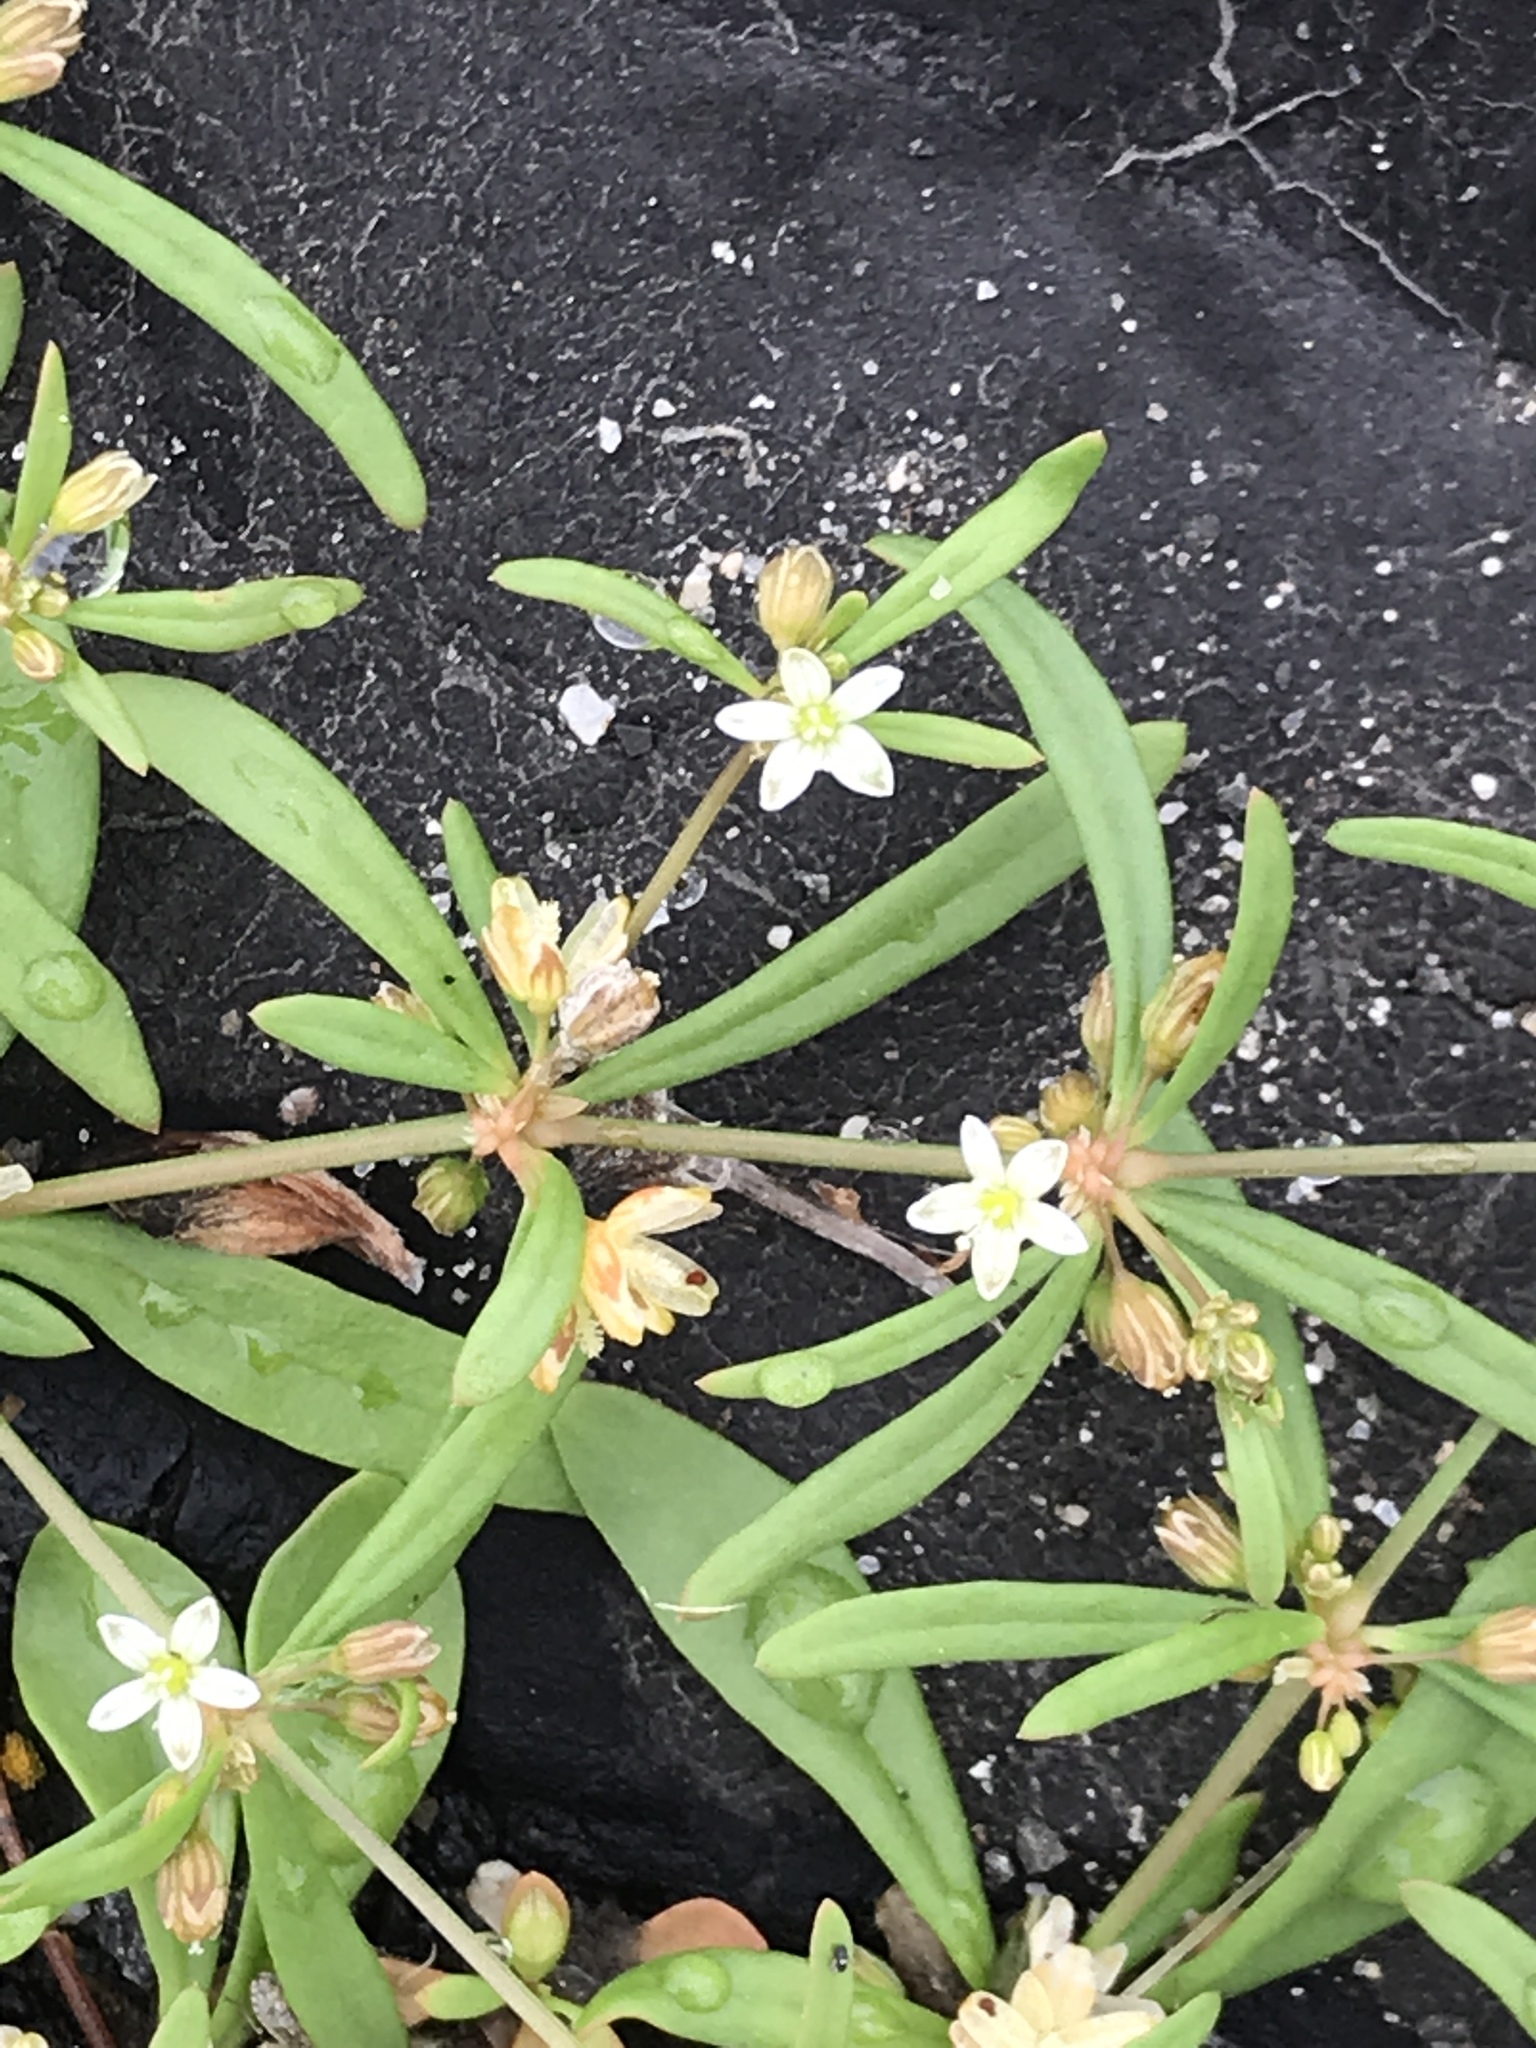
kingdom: Plantae
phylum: Tracheophyta
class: Magnoliopsida
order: Caryophyllales
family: Molluginaceae
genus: Mollugo
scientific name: Mollugo verticillata
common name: Green carpetweed
